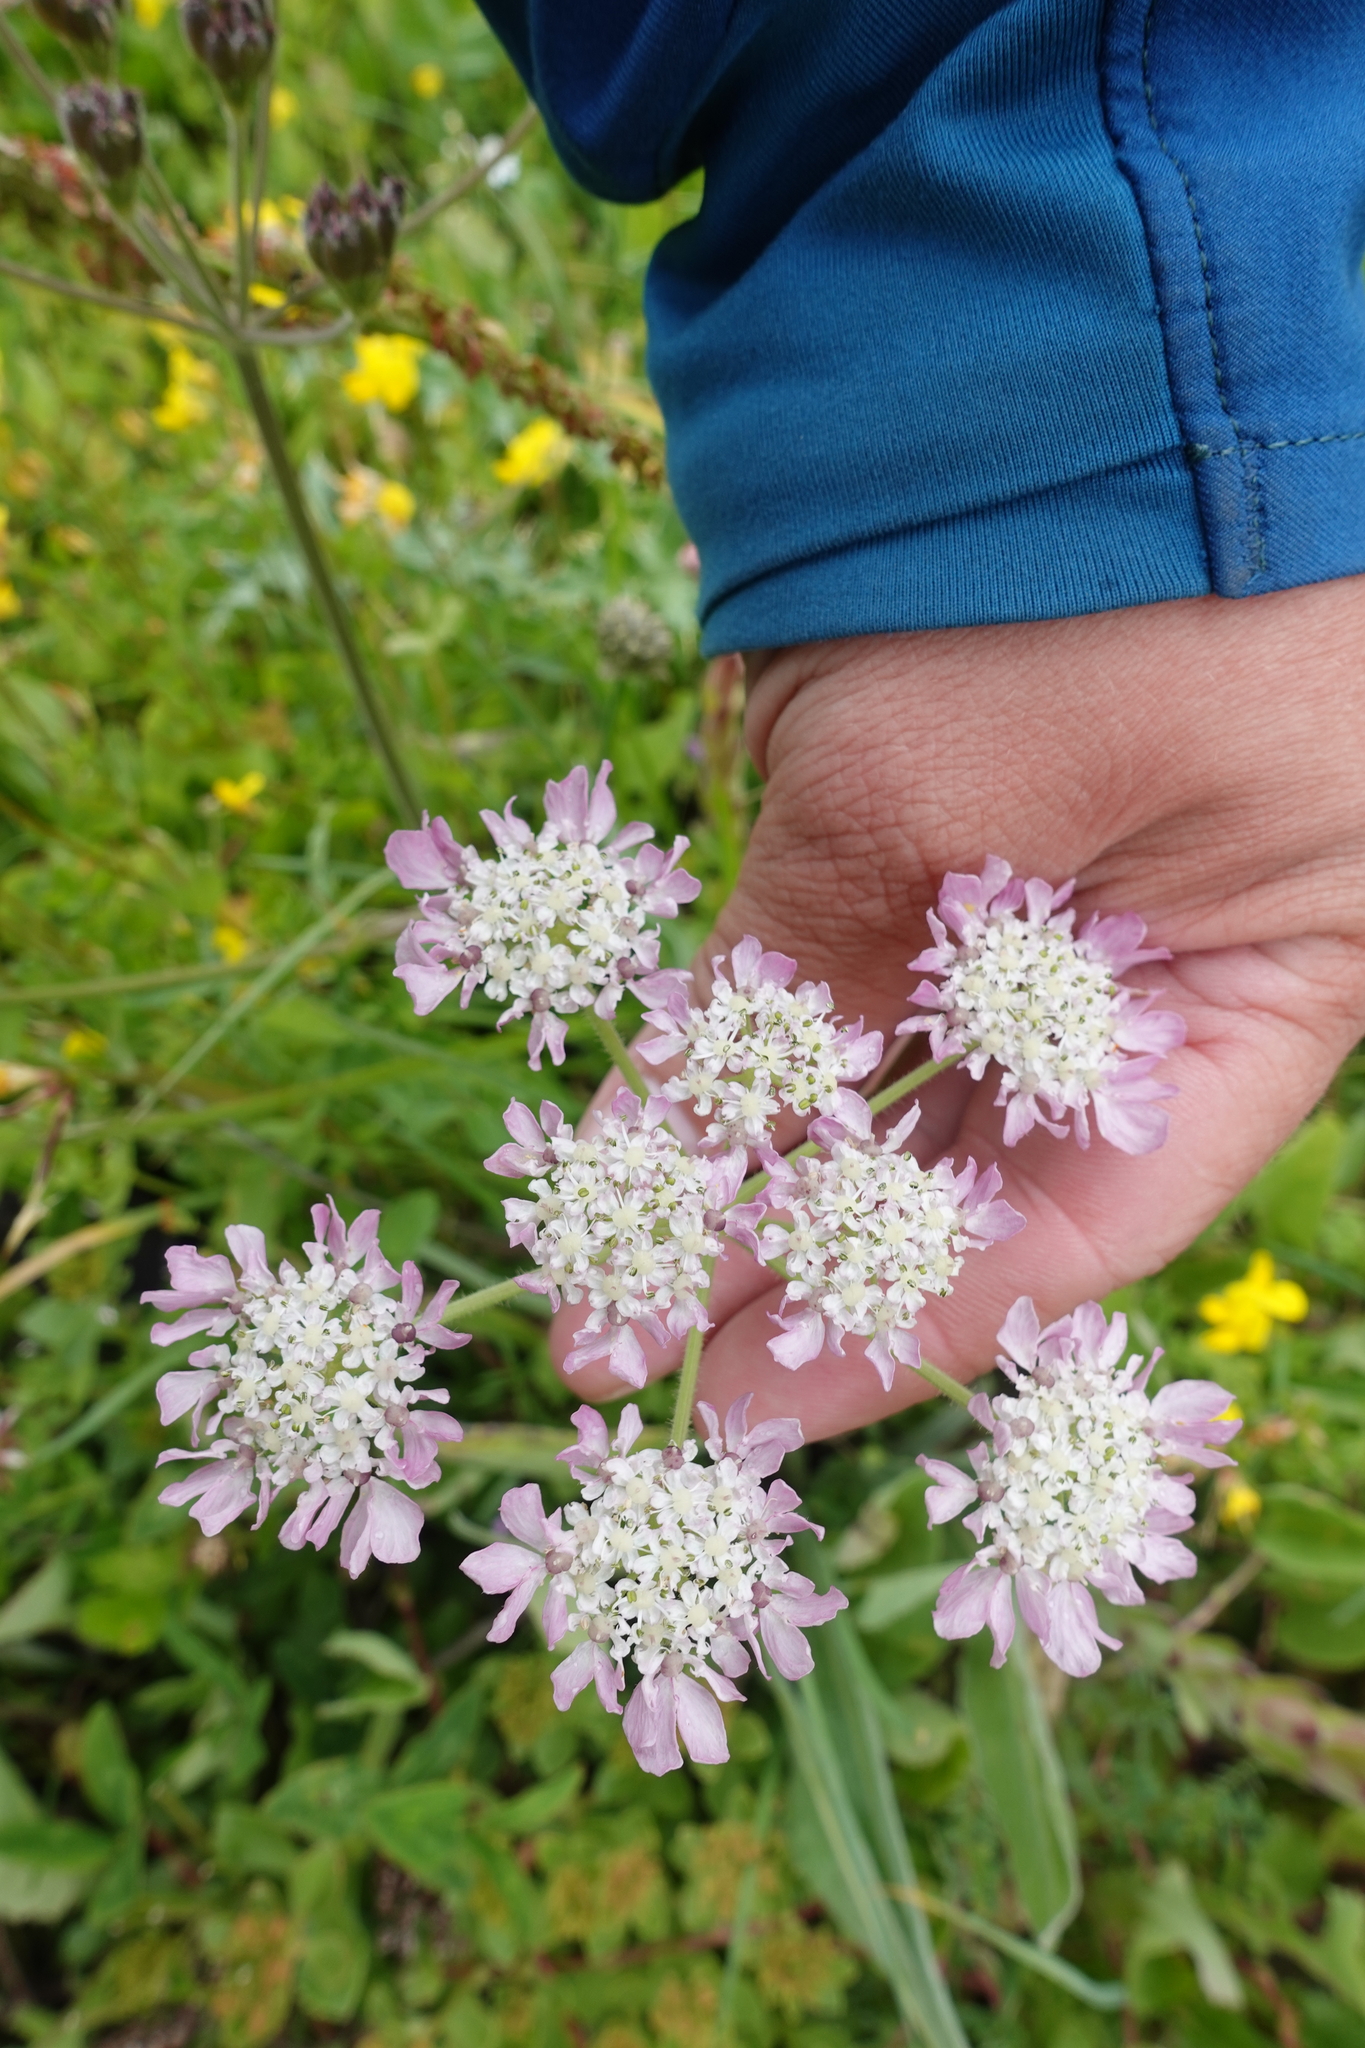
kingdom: Plantae
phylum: Tracheophyta
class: Magnoliopsida
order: Apiales
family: Apiaceae
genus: Heracleum
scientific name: Heracleum roseum
